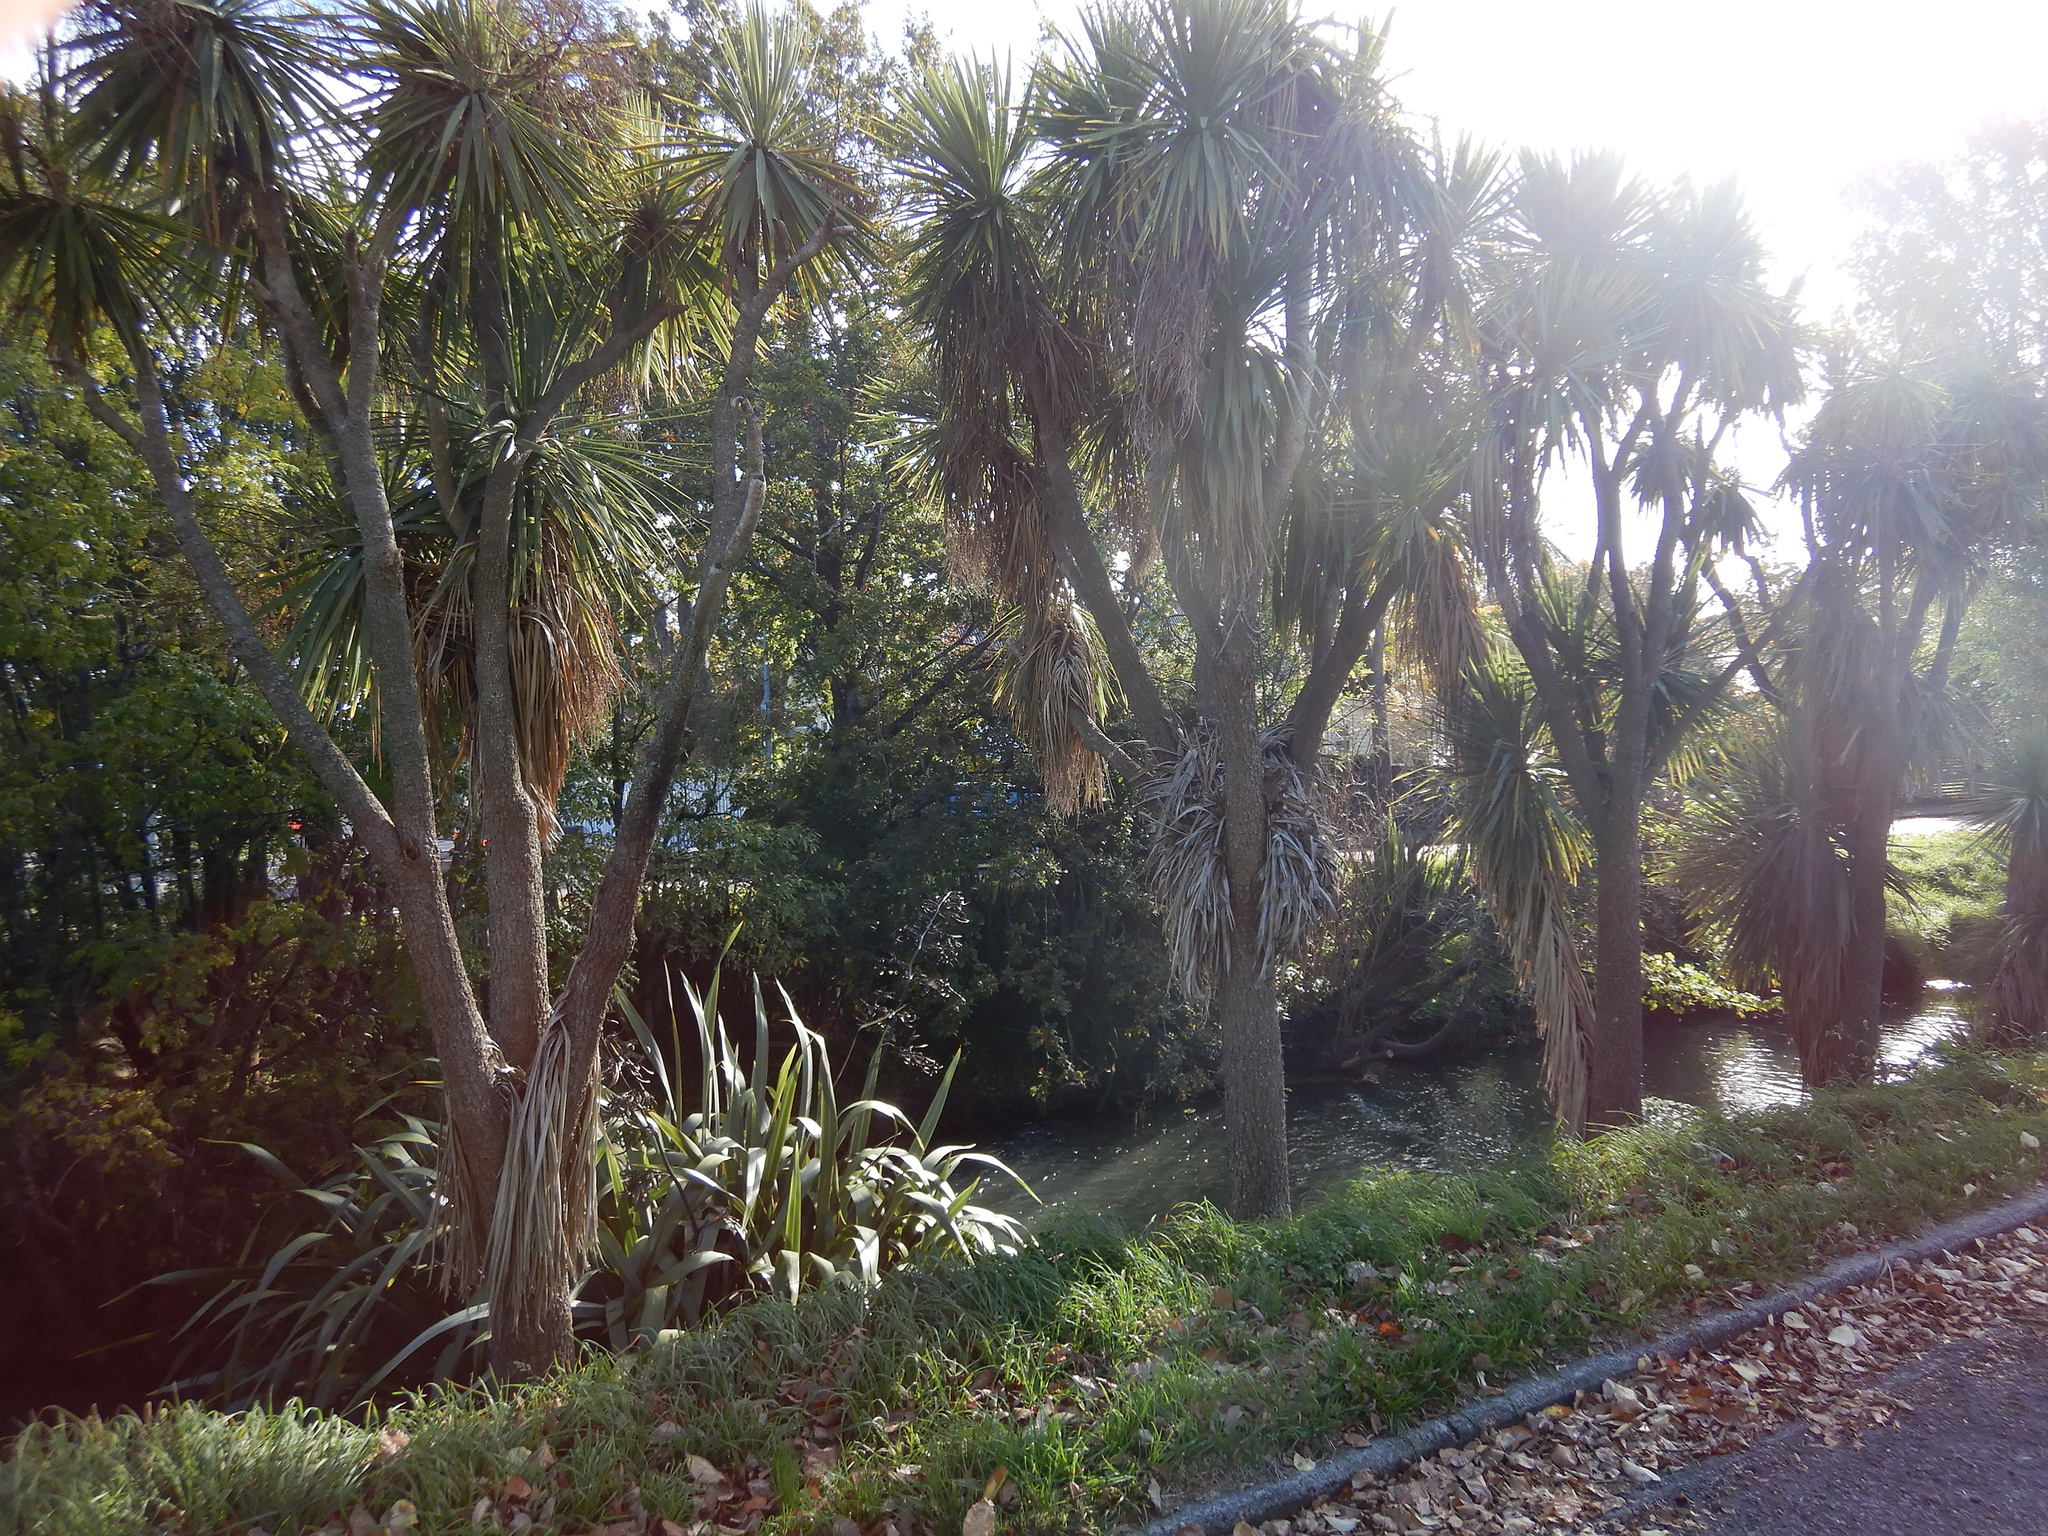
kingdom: Plantae
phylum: Tracheophyta
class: Liliopsida
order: Asparagales
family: Asparagaceae
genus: Cordyline
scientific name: Cordyline australis
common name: Cabbage-palm
